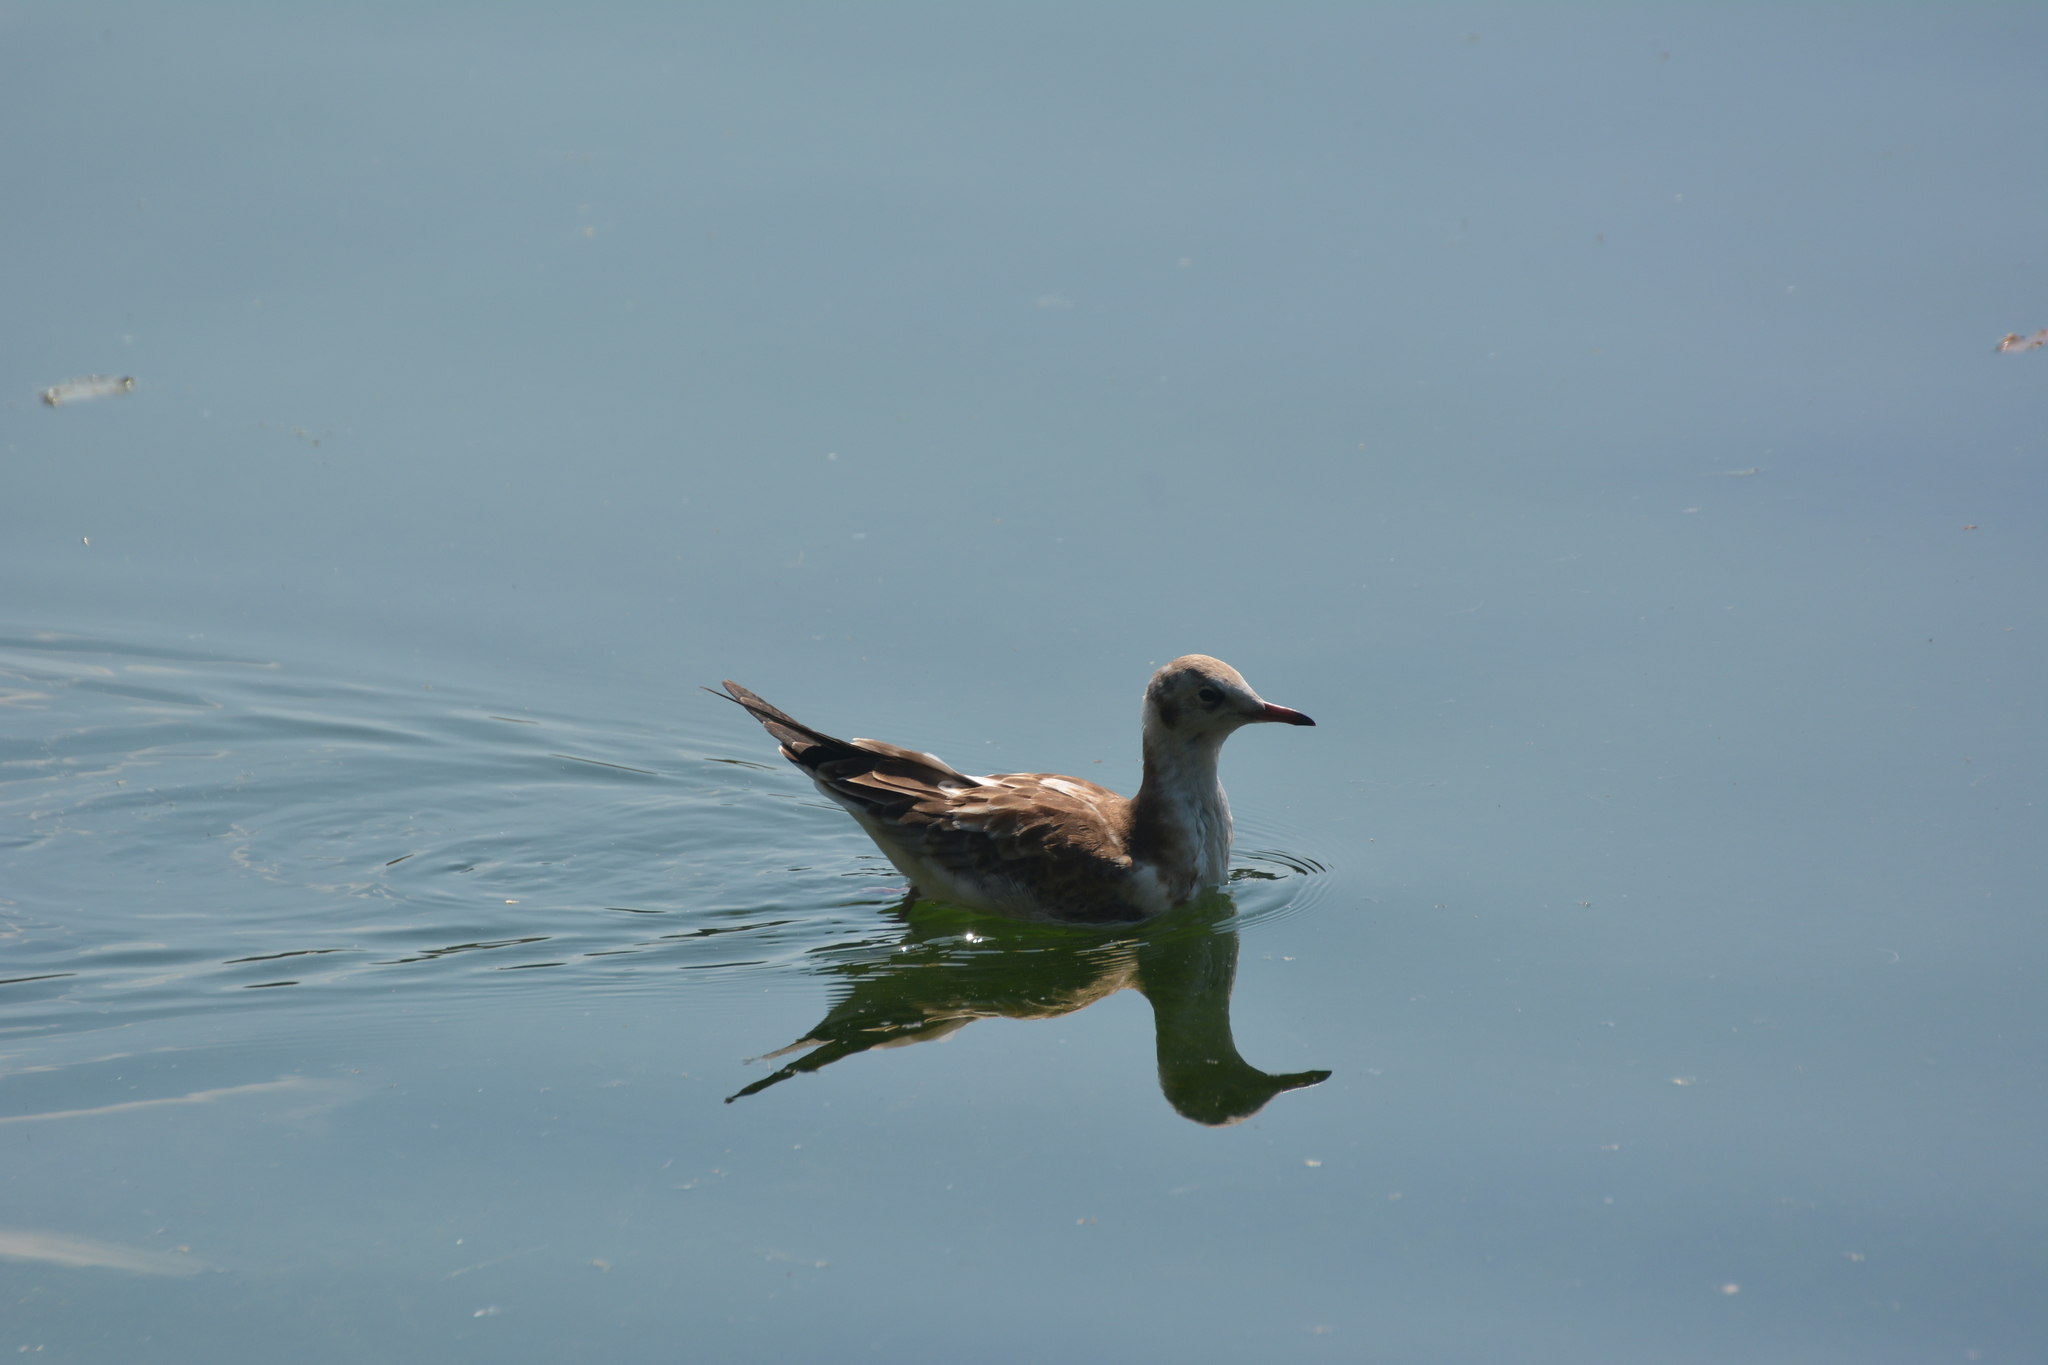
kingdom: Animalia
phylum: Chordata
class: Aves
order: Charadriiformes
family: Laridae
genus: Chroicocephalus
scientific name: Chroicocephalus ridibundus
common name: Black-headed gull
